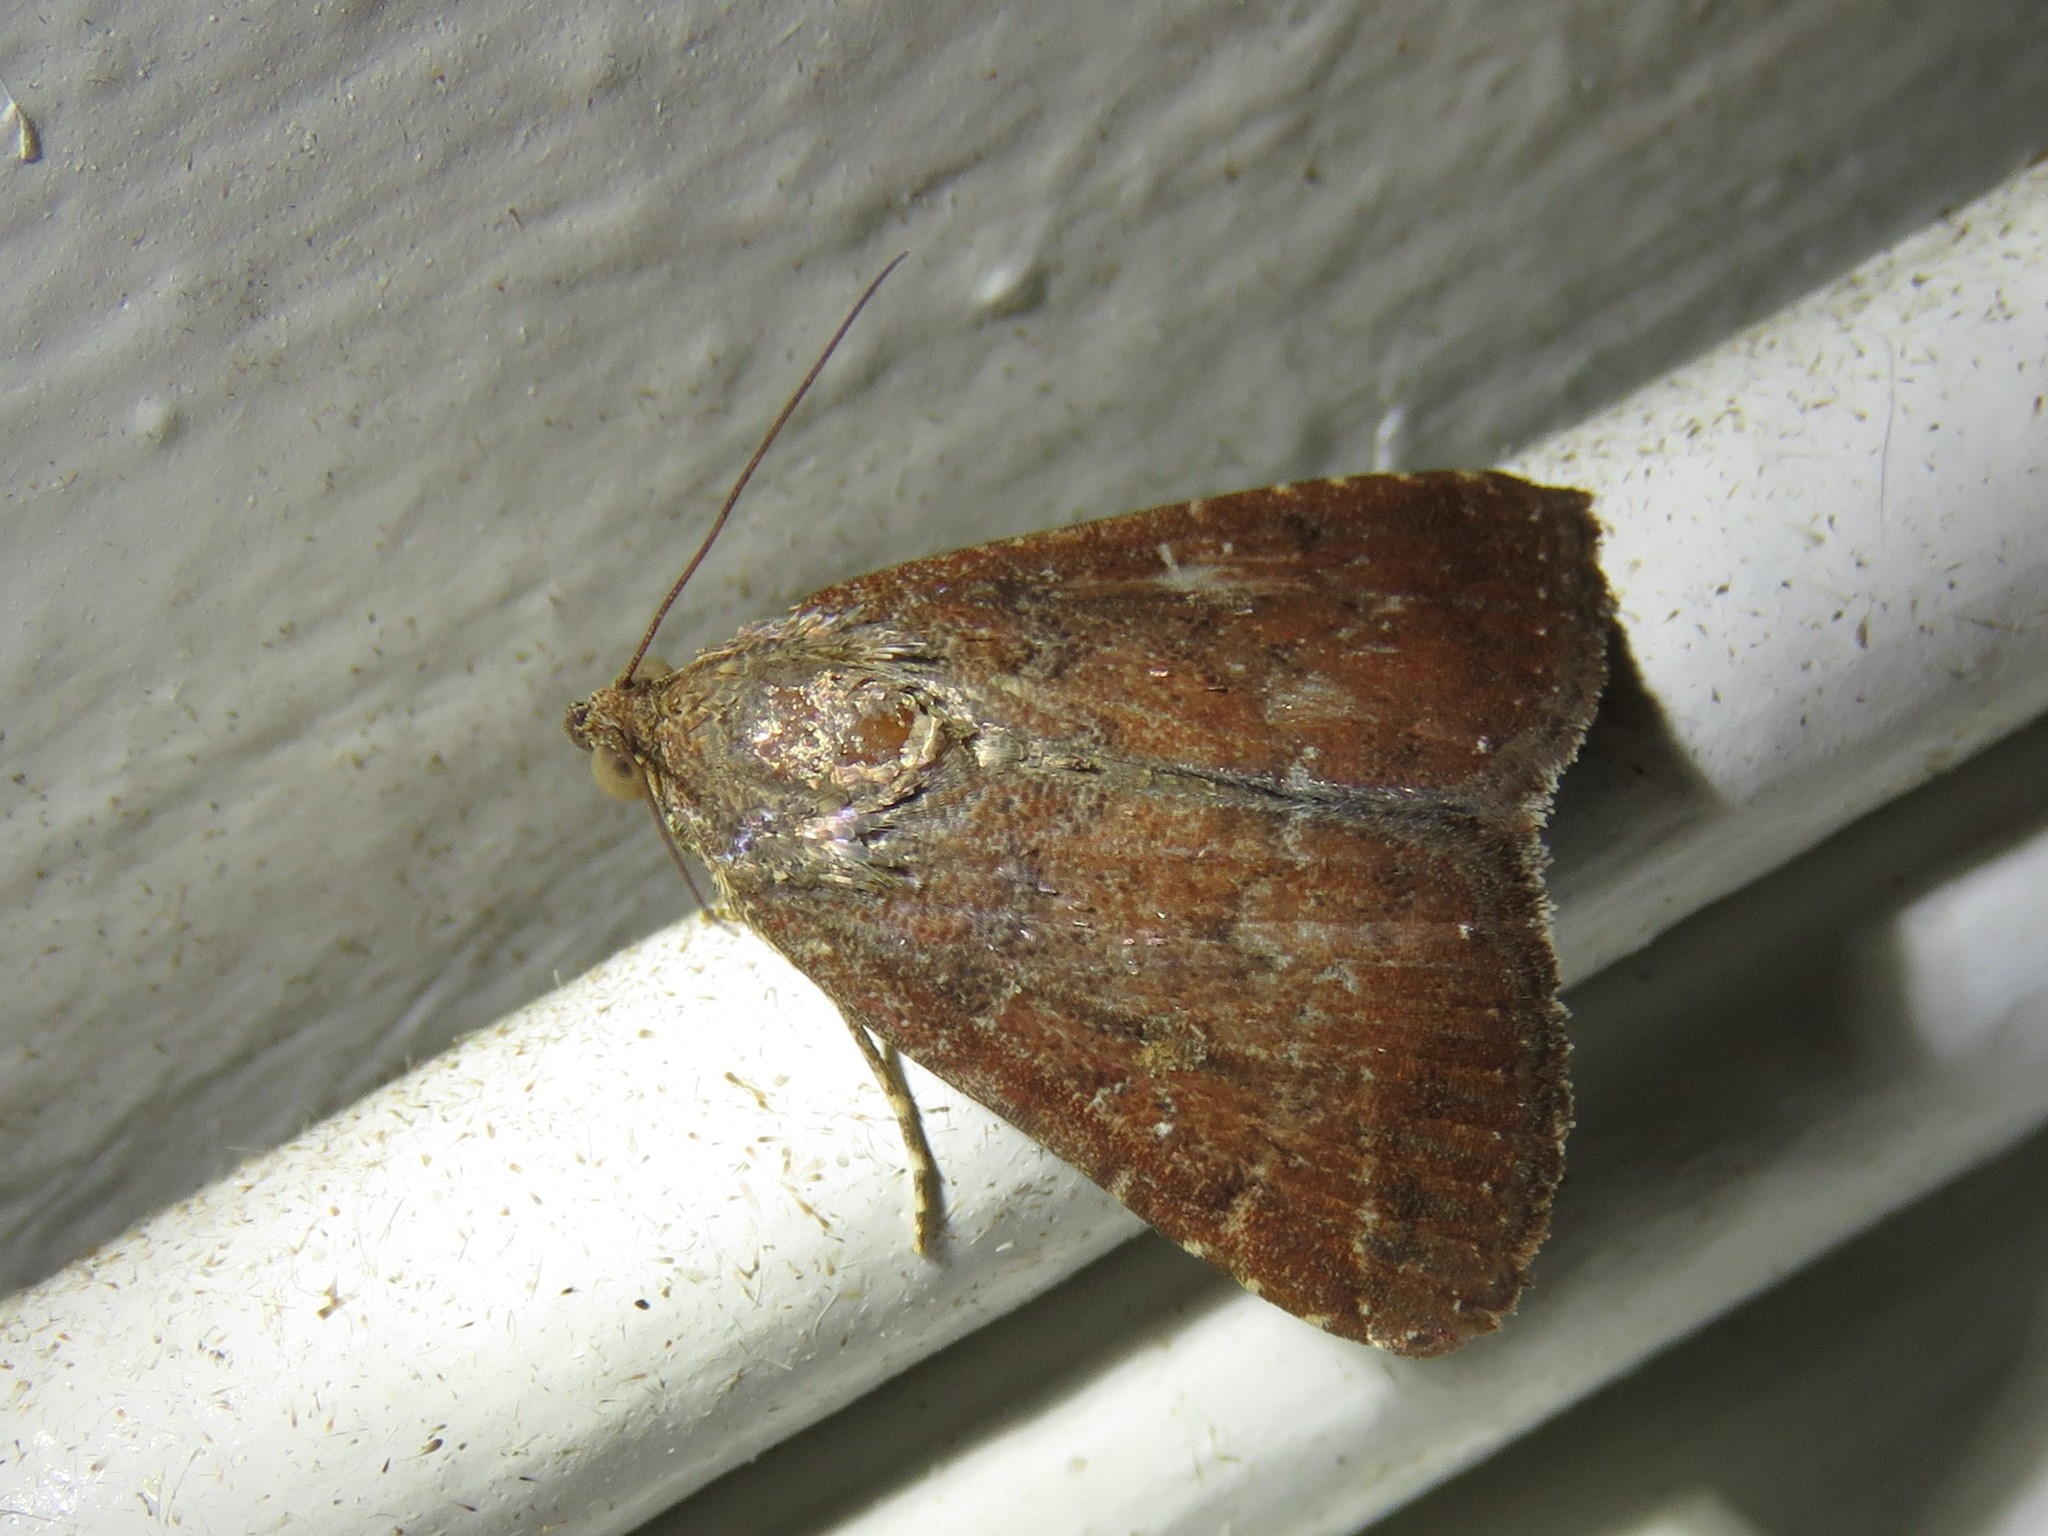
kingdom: Animalia
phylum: Arthropoda
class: Insecta
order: Lepidoptera
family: Noctuidae
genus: Amyna
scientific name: Amyna stricta
